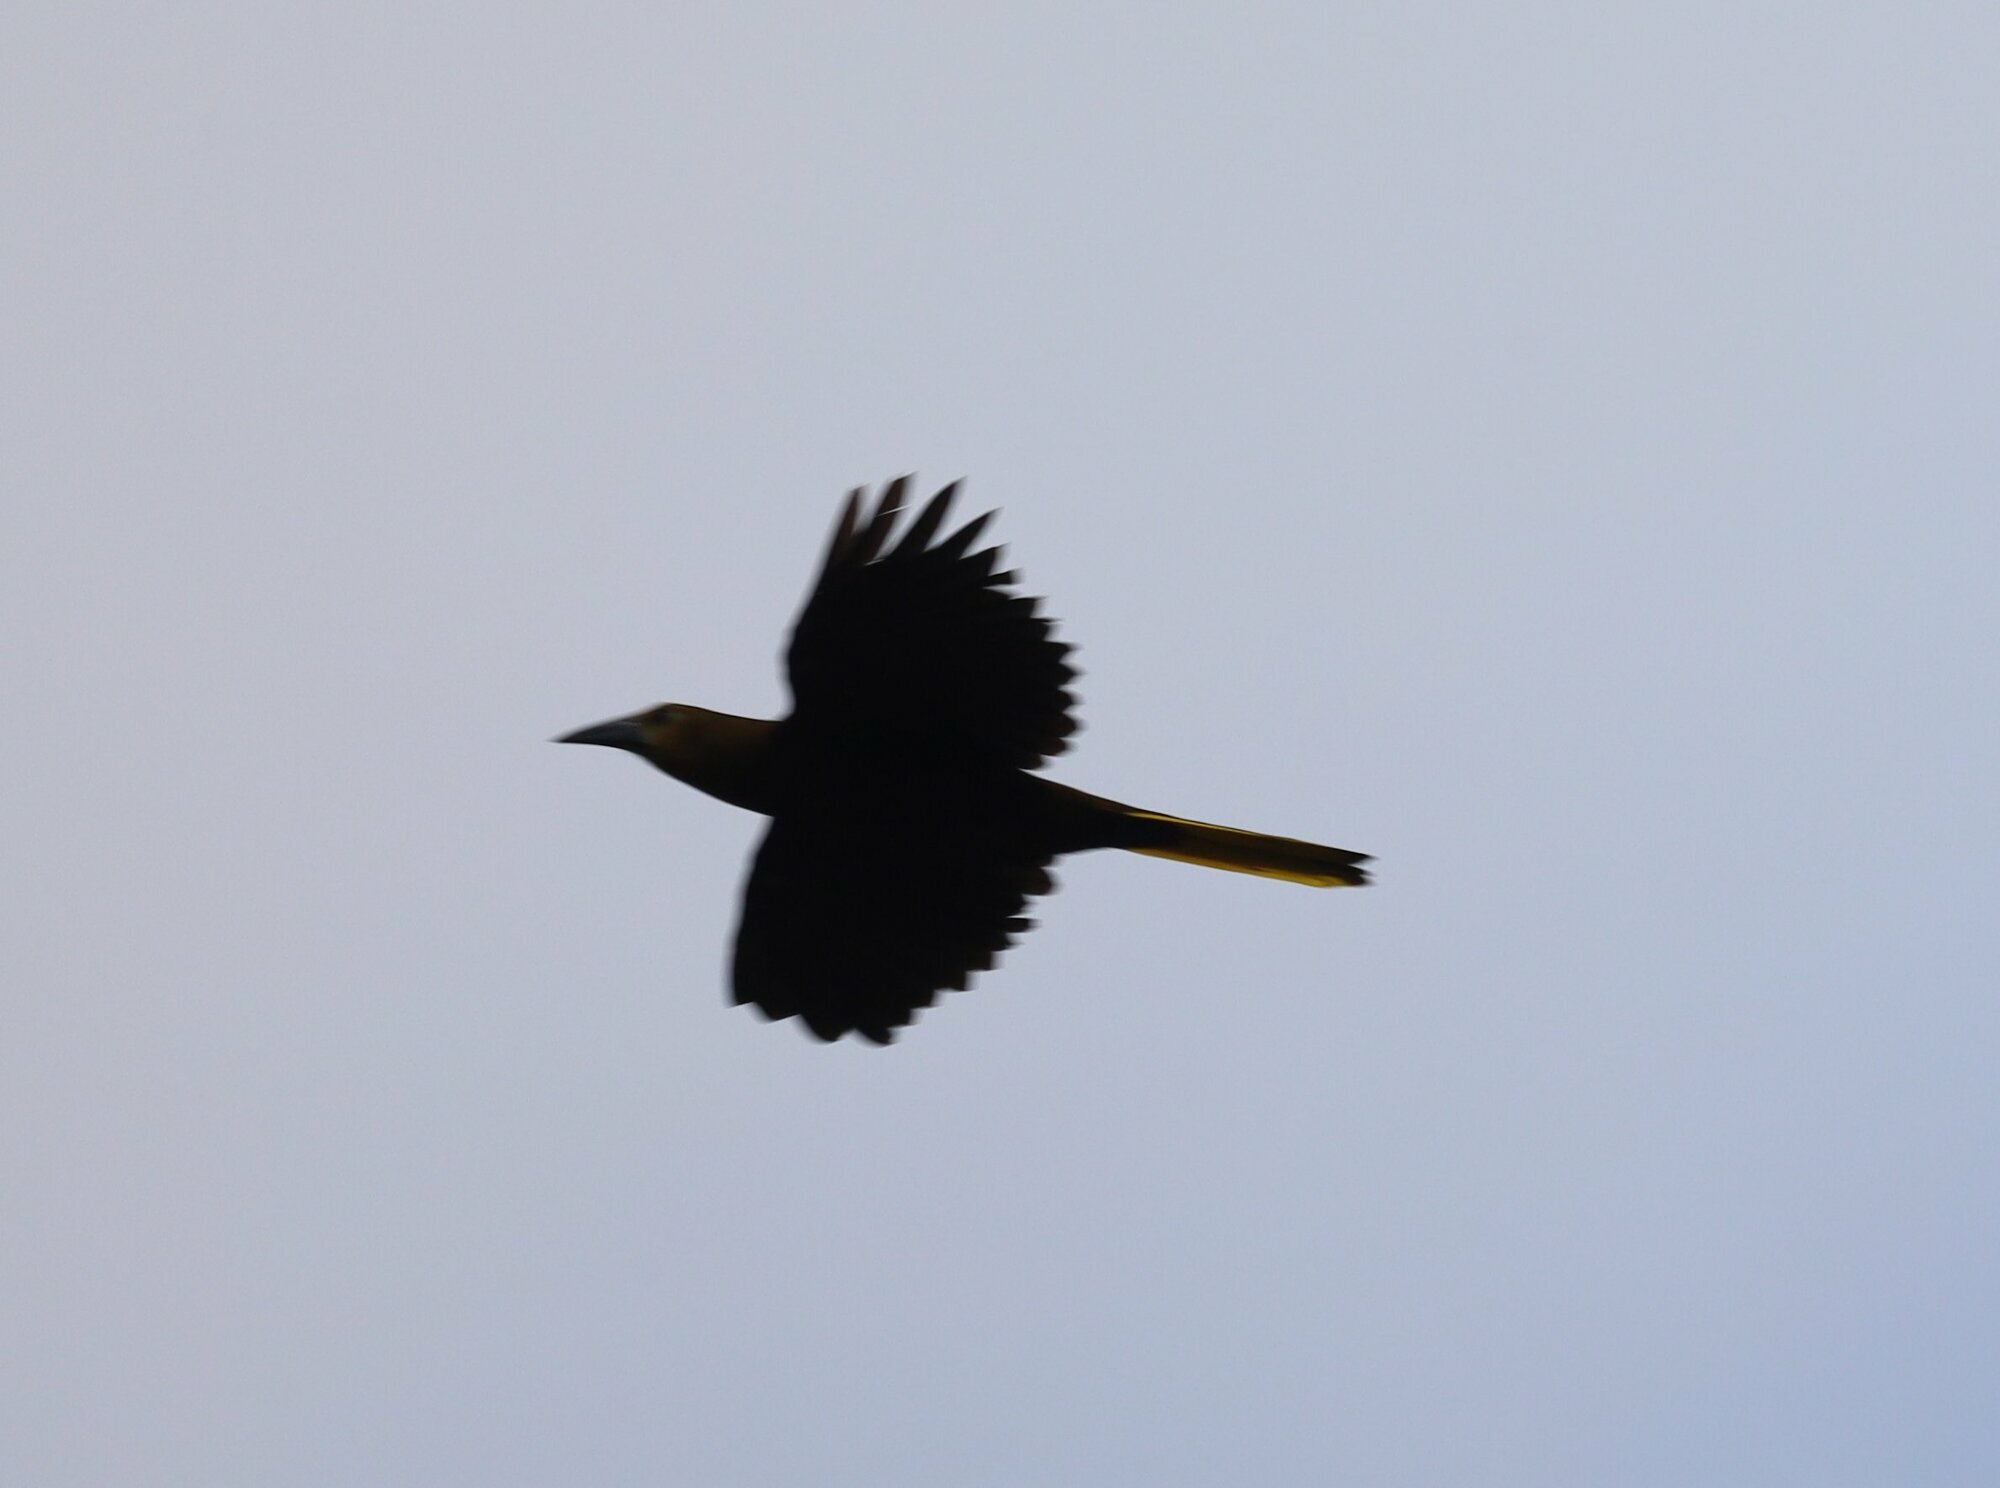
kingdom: Animalia
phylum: Chordata
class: Aves
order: Passeriformes
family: Icteridae
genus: Psarocolius
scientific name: Psarocolius angustifrons
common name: Russet-backed oropendola
